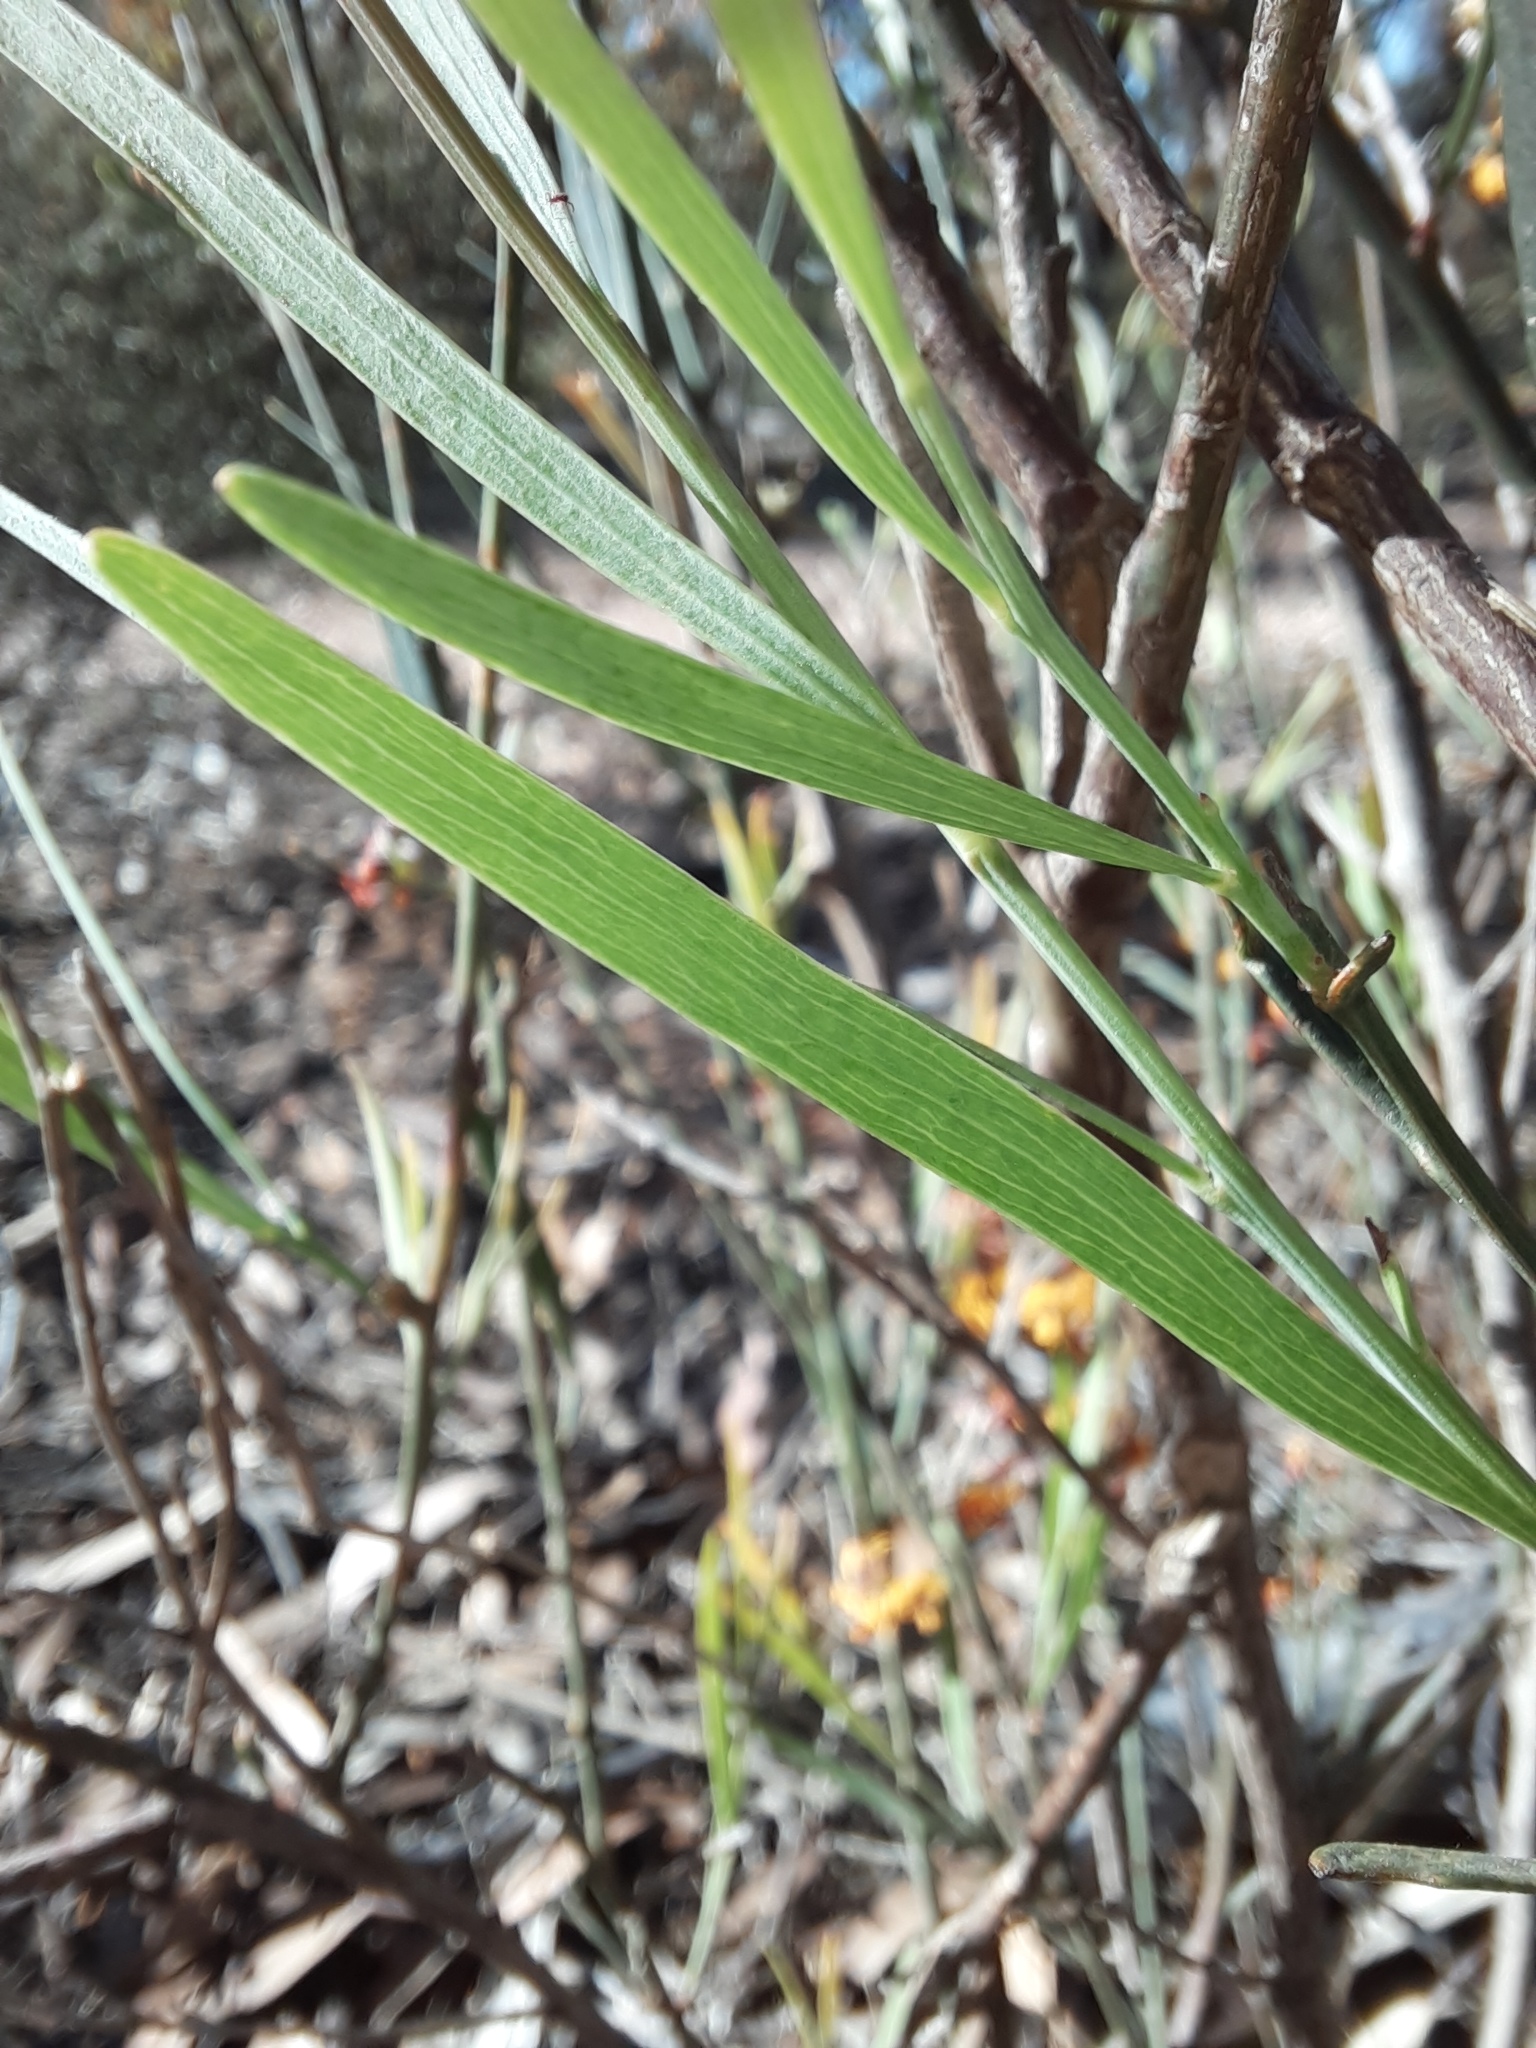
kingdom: Plantae
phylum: Tracheophyta
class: Magnoliopsida
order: Fabales
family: Fabaceae
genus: Daviesia
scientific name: Daviesia leptophylla
